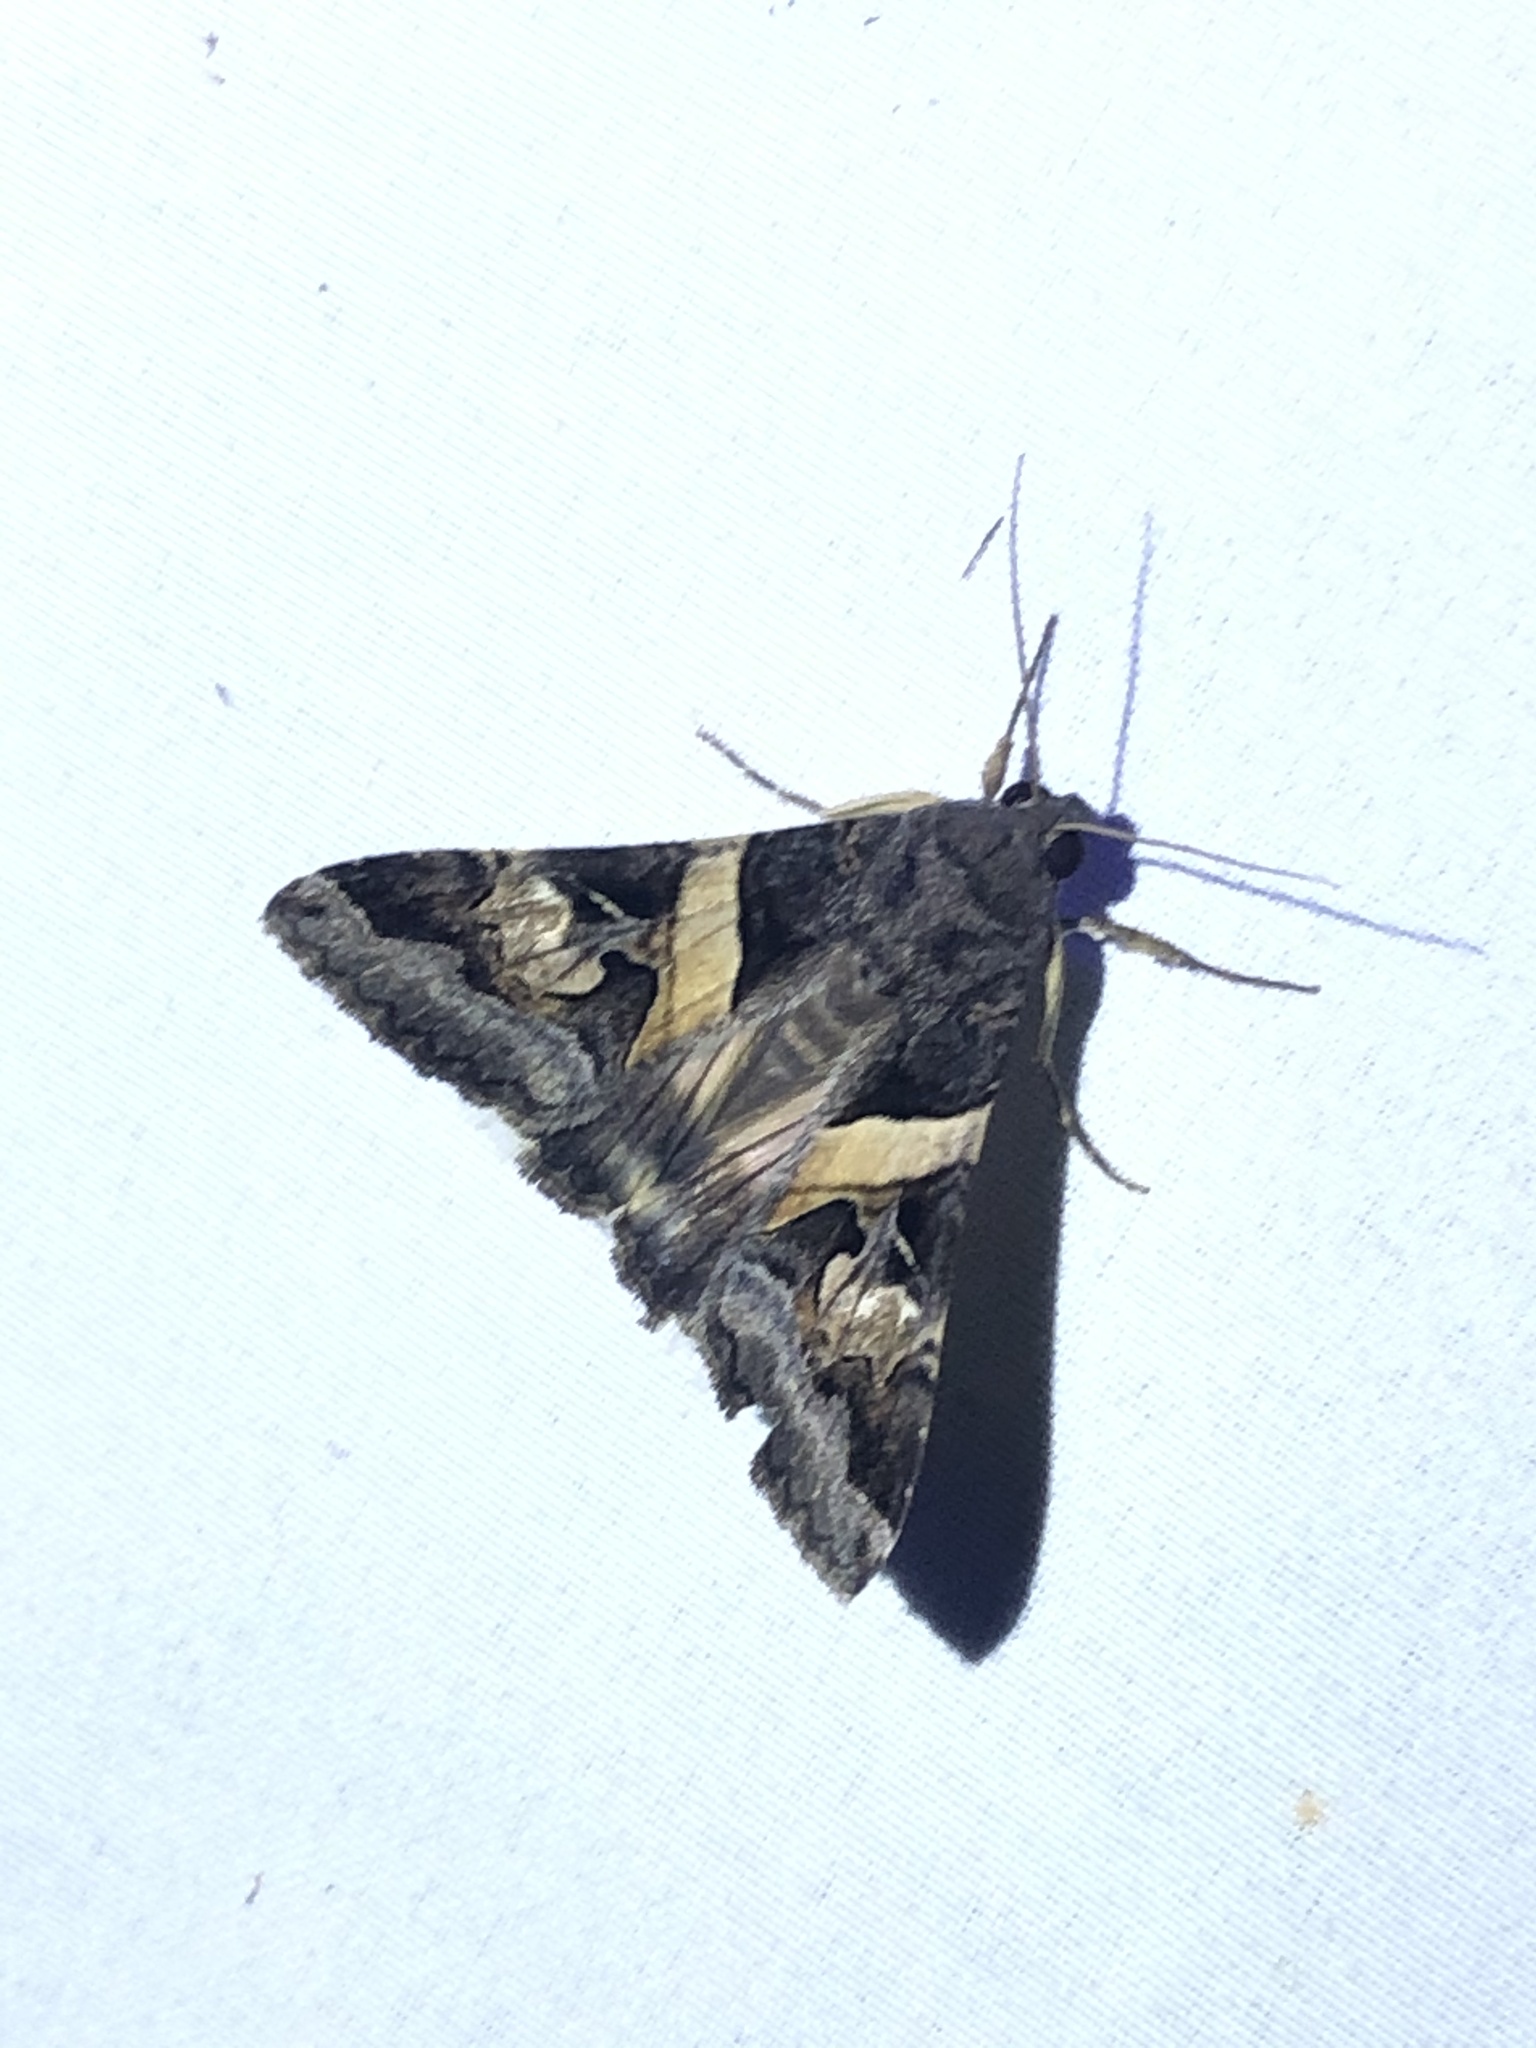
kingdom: Animalia
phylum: Arthropoda
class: Insecta
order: Lepidoptera
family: Erebidae
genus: Melipotis
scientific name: Melipotis indomita
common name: Moth
